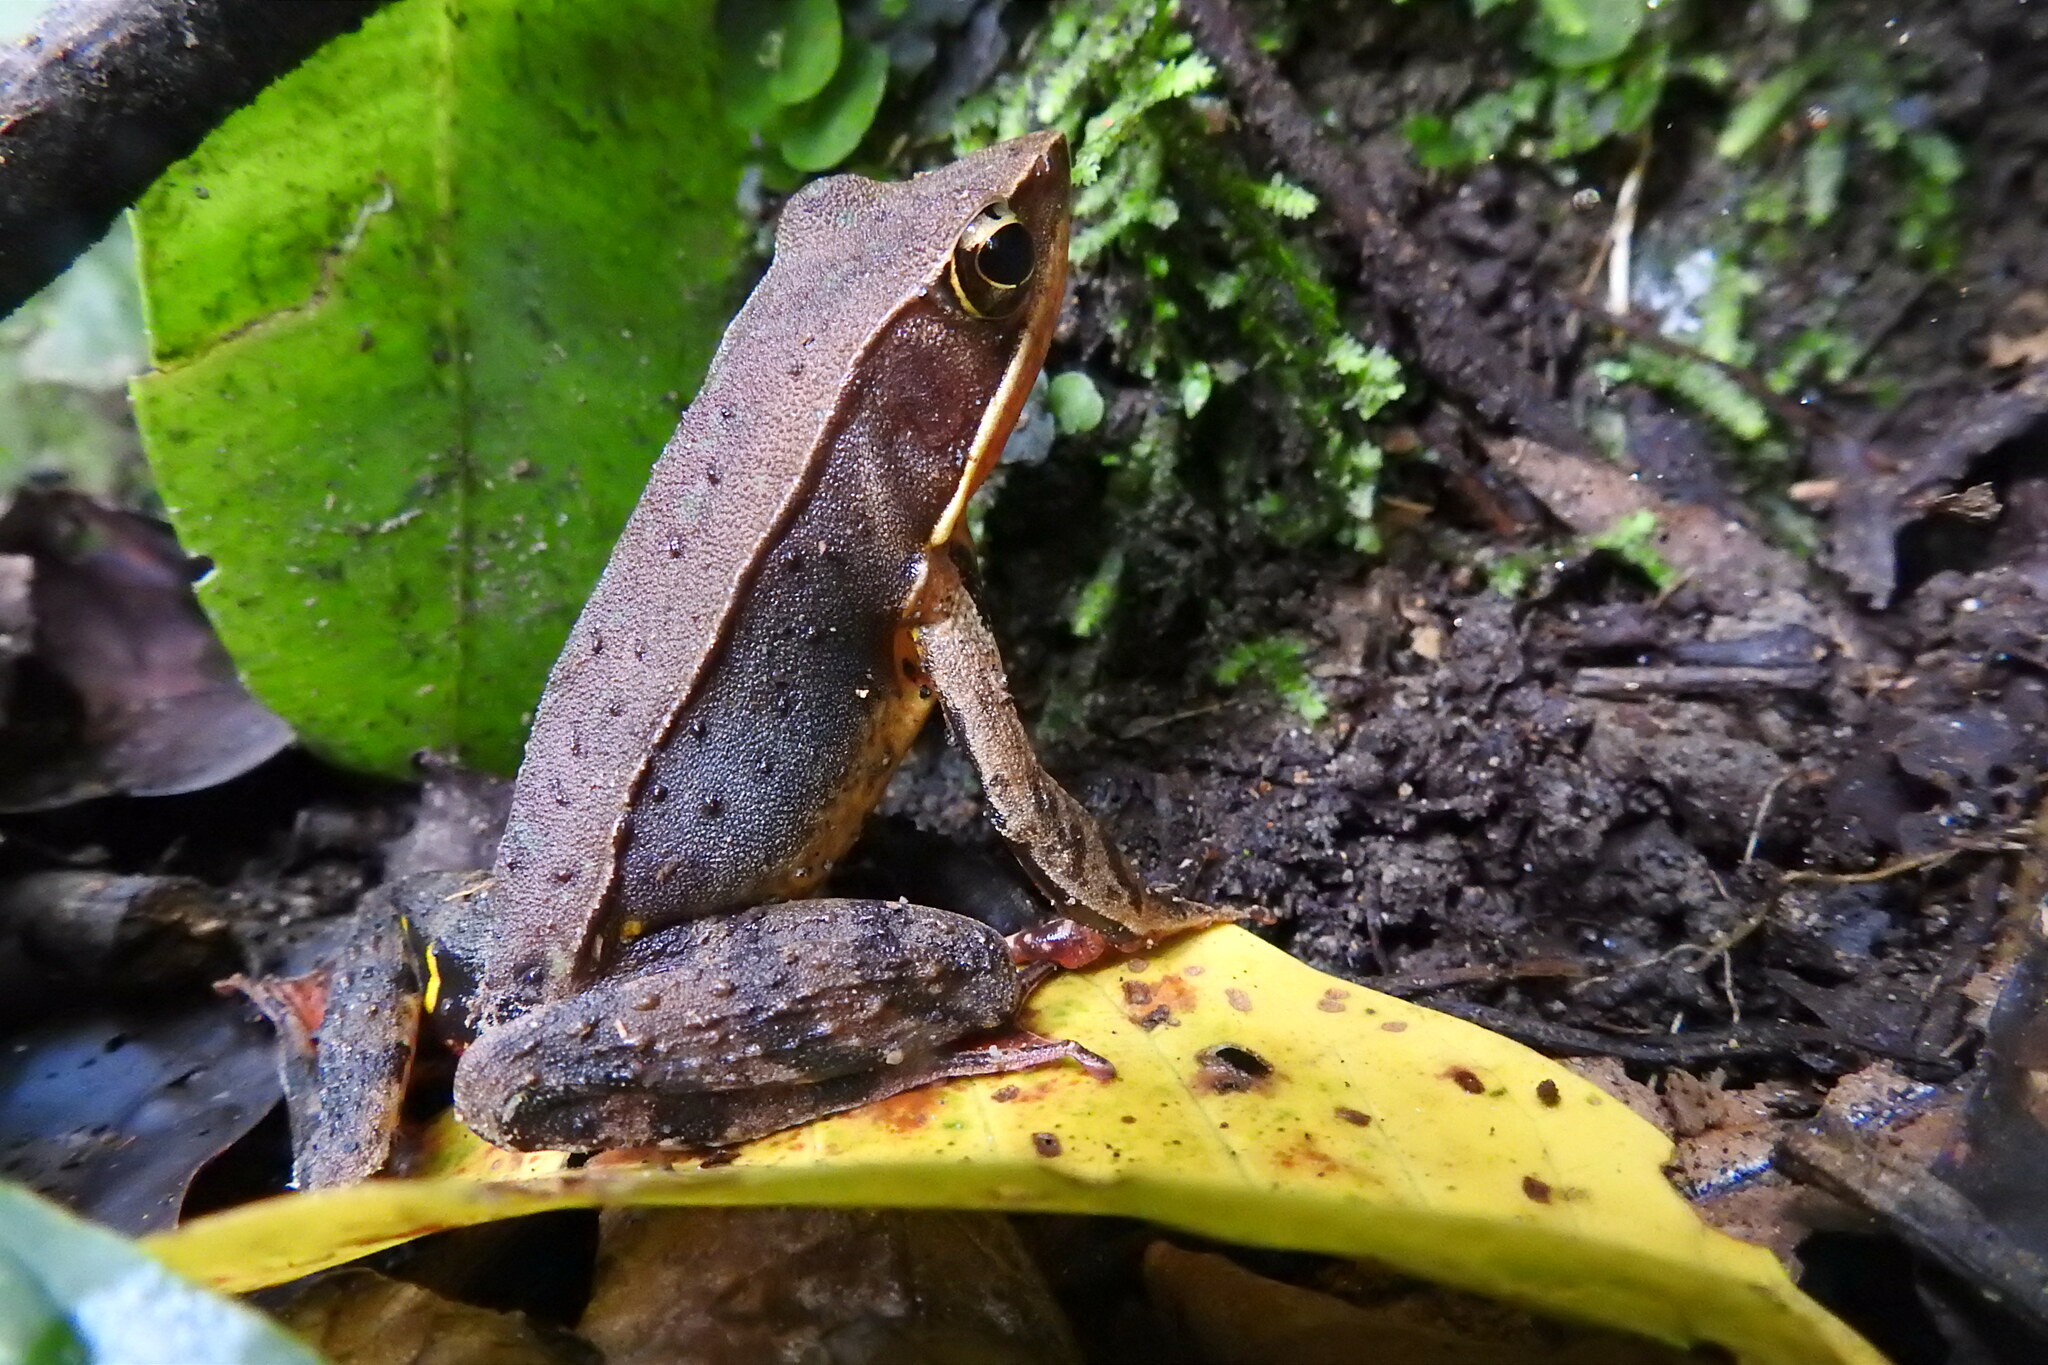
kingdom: Animalia
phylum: Chordata
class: Amphibia
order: Anura
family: Ranidae
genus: Lithobates
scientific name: Lithobates warszewitschii
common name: Warszewitsch's frog
